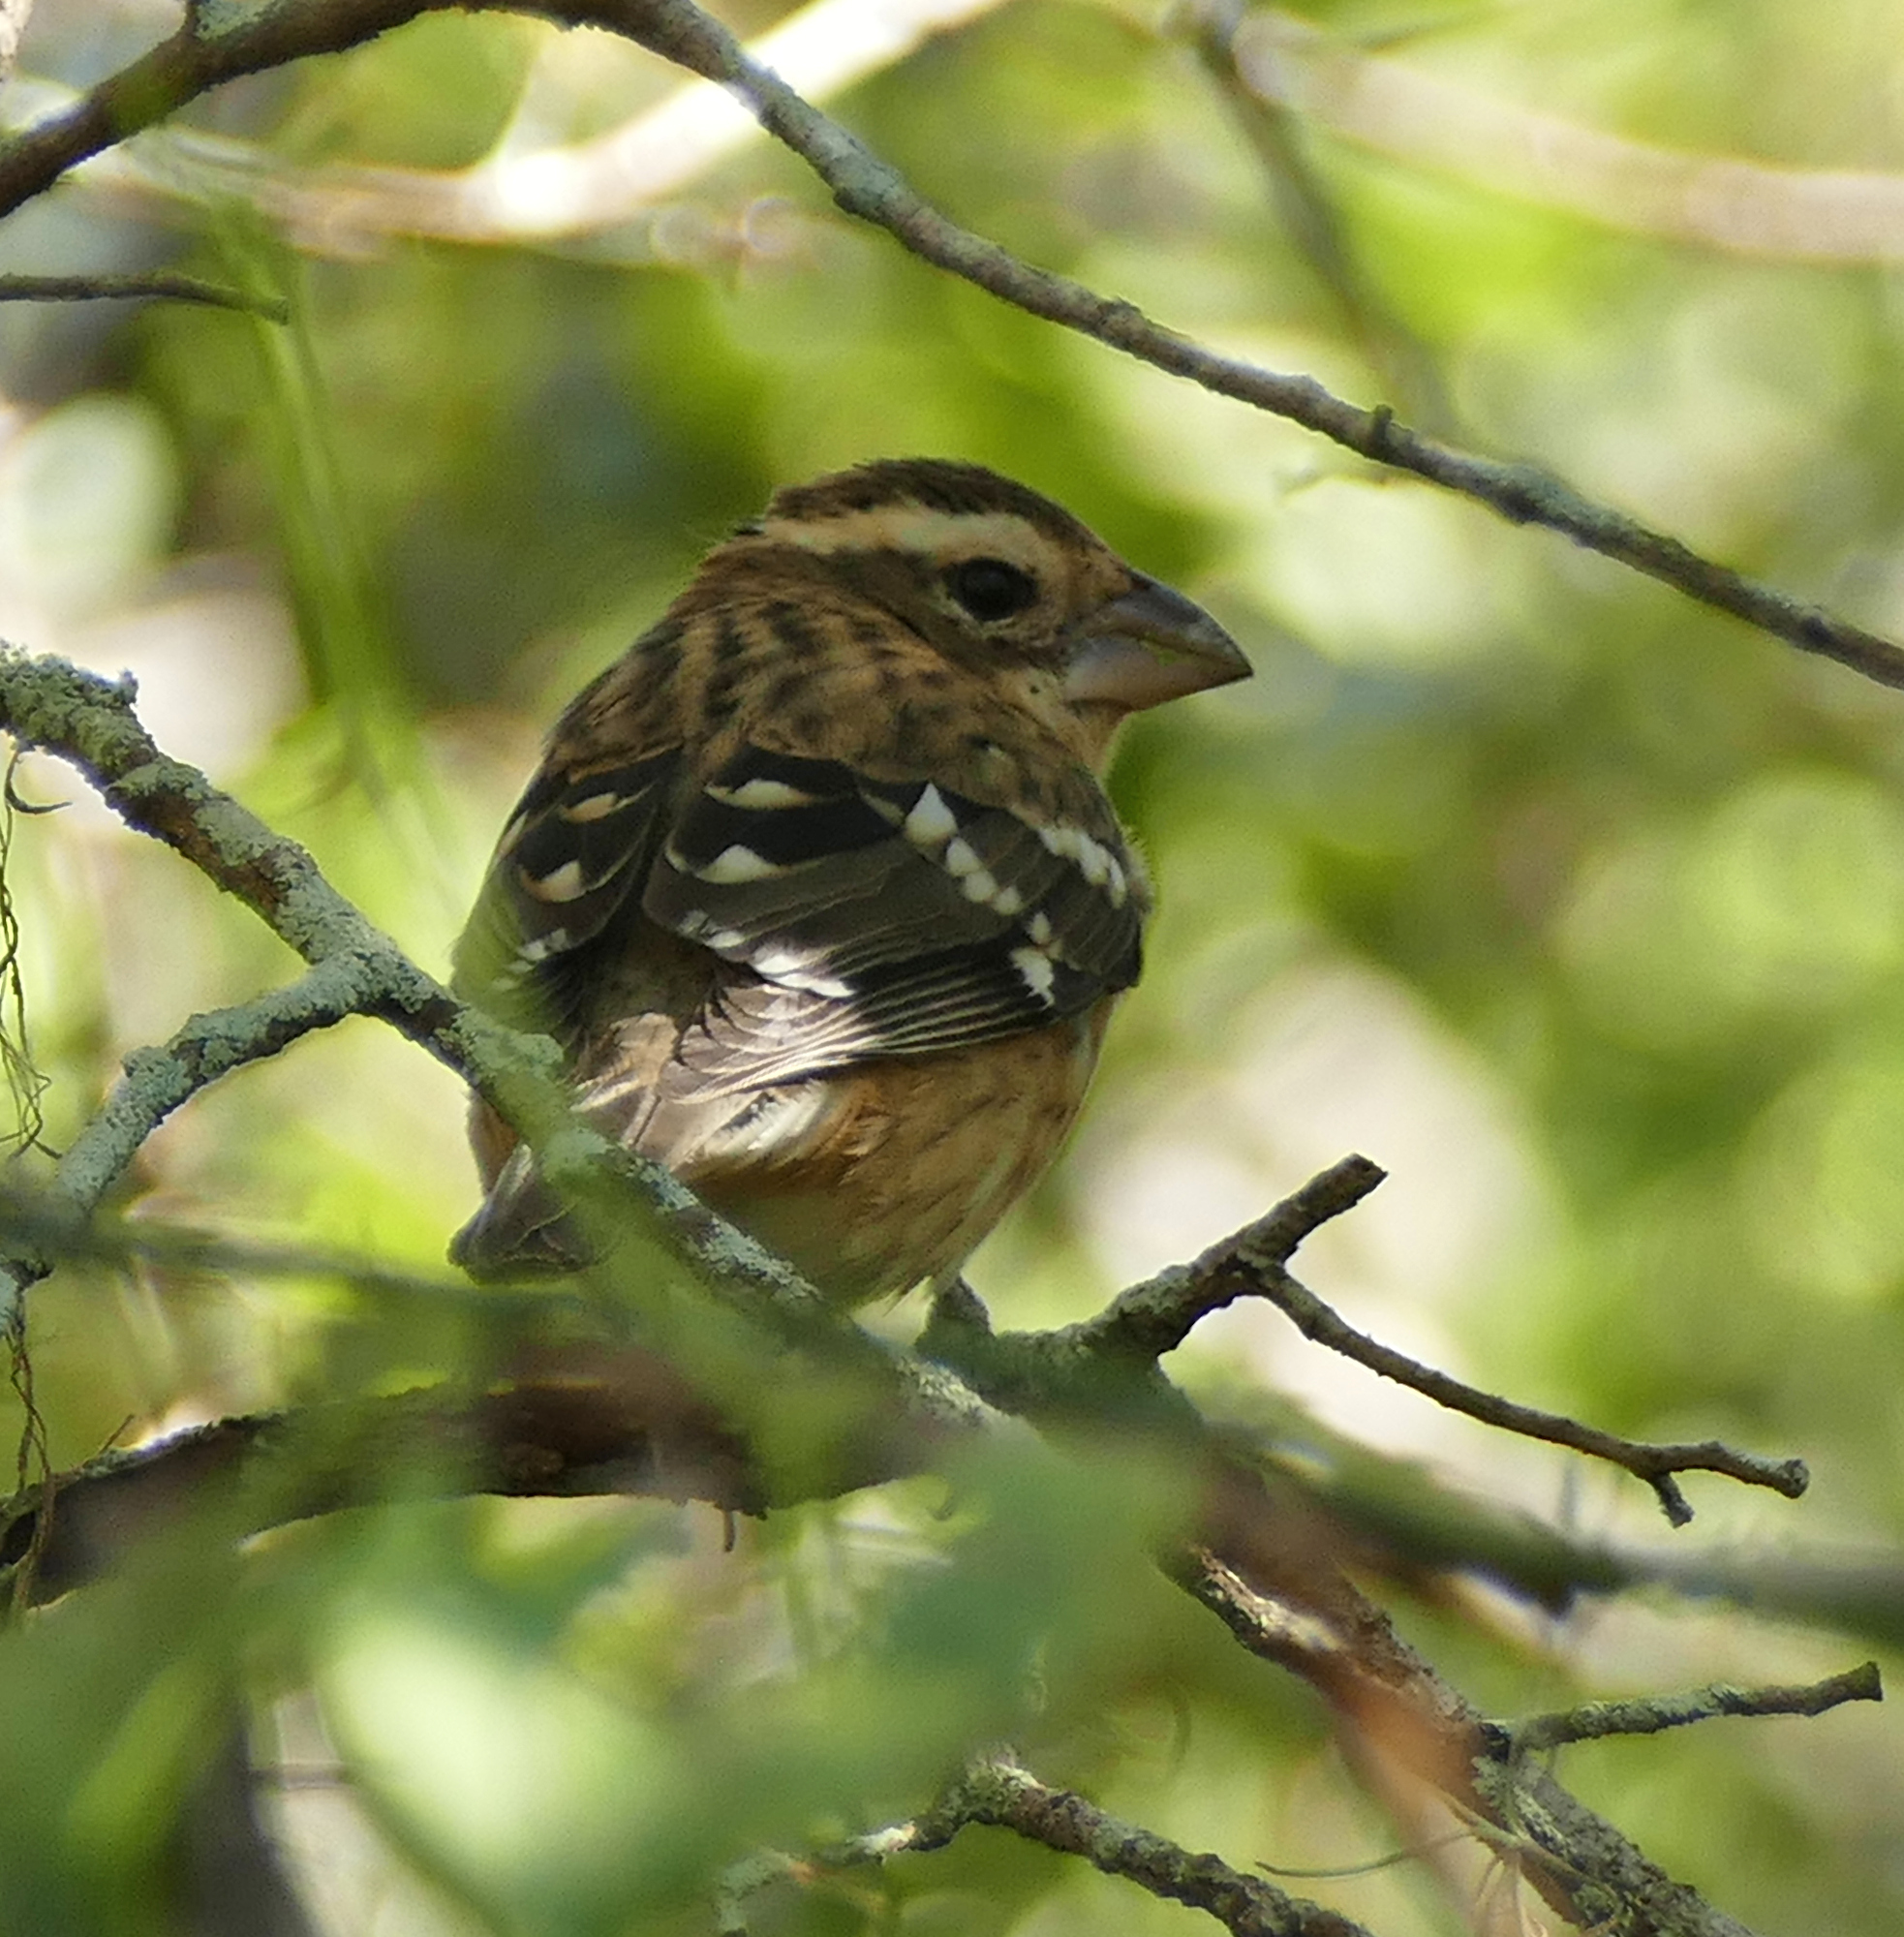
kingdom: Animalia
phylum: Chordata
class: Aves
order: Passeriformes
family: Cardinalidae
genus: Pheucticus
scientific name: Pheucticus ludovicianus
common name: Rose-breasted grosbeak
